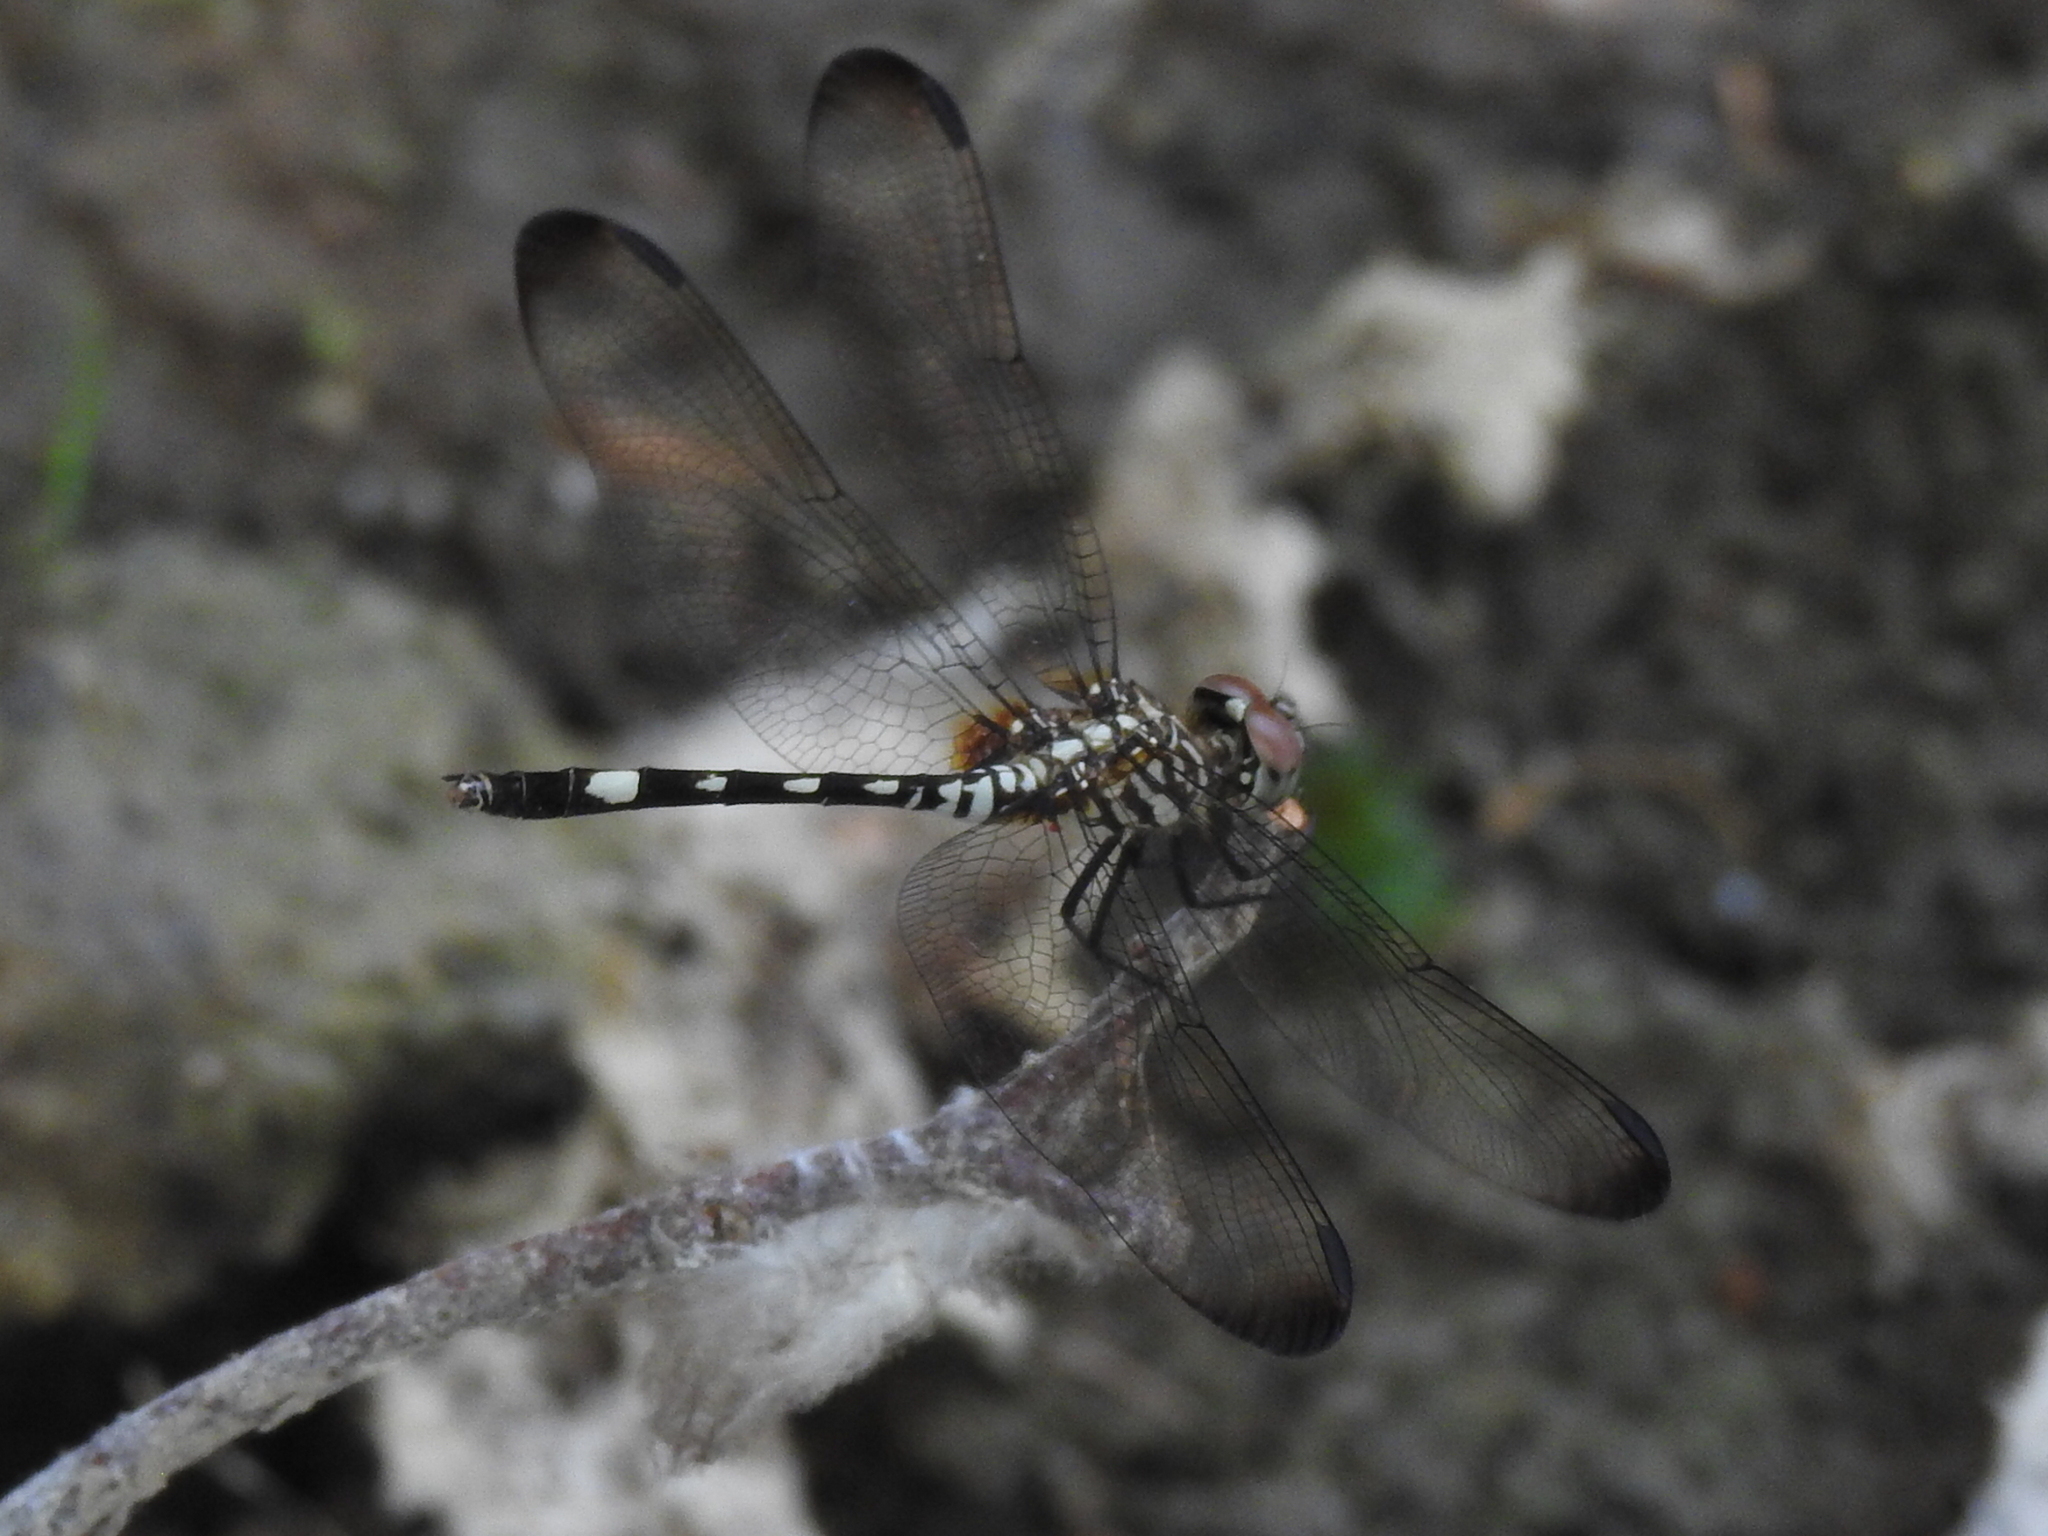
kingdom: Animalia
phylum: Arthropoda
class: Insecta
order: Odonata
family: Libellulidae
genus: Dythemis
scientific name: Dythemis velox
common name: Swift setwing
